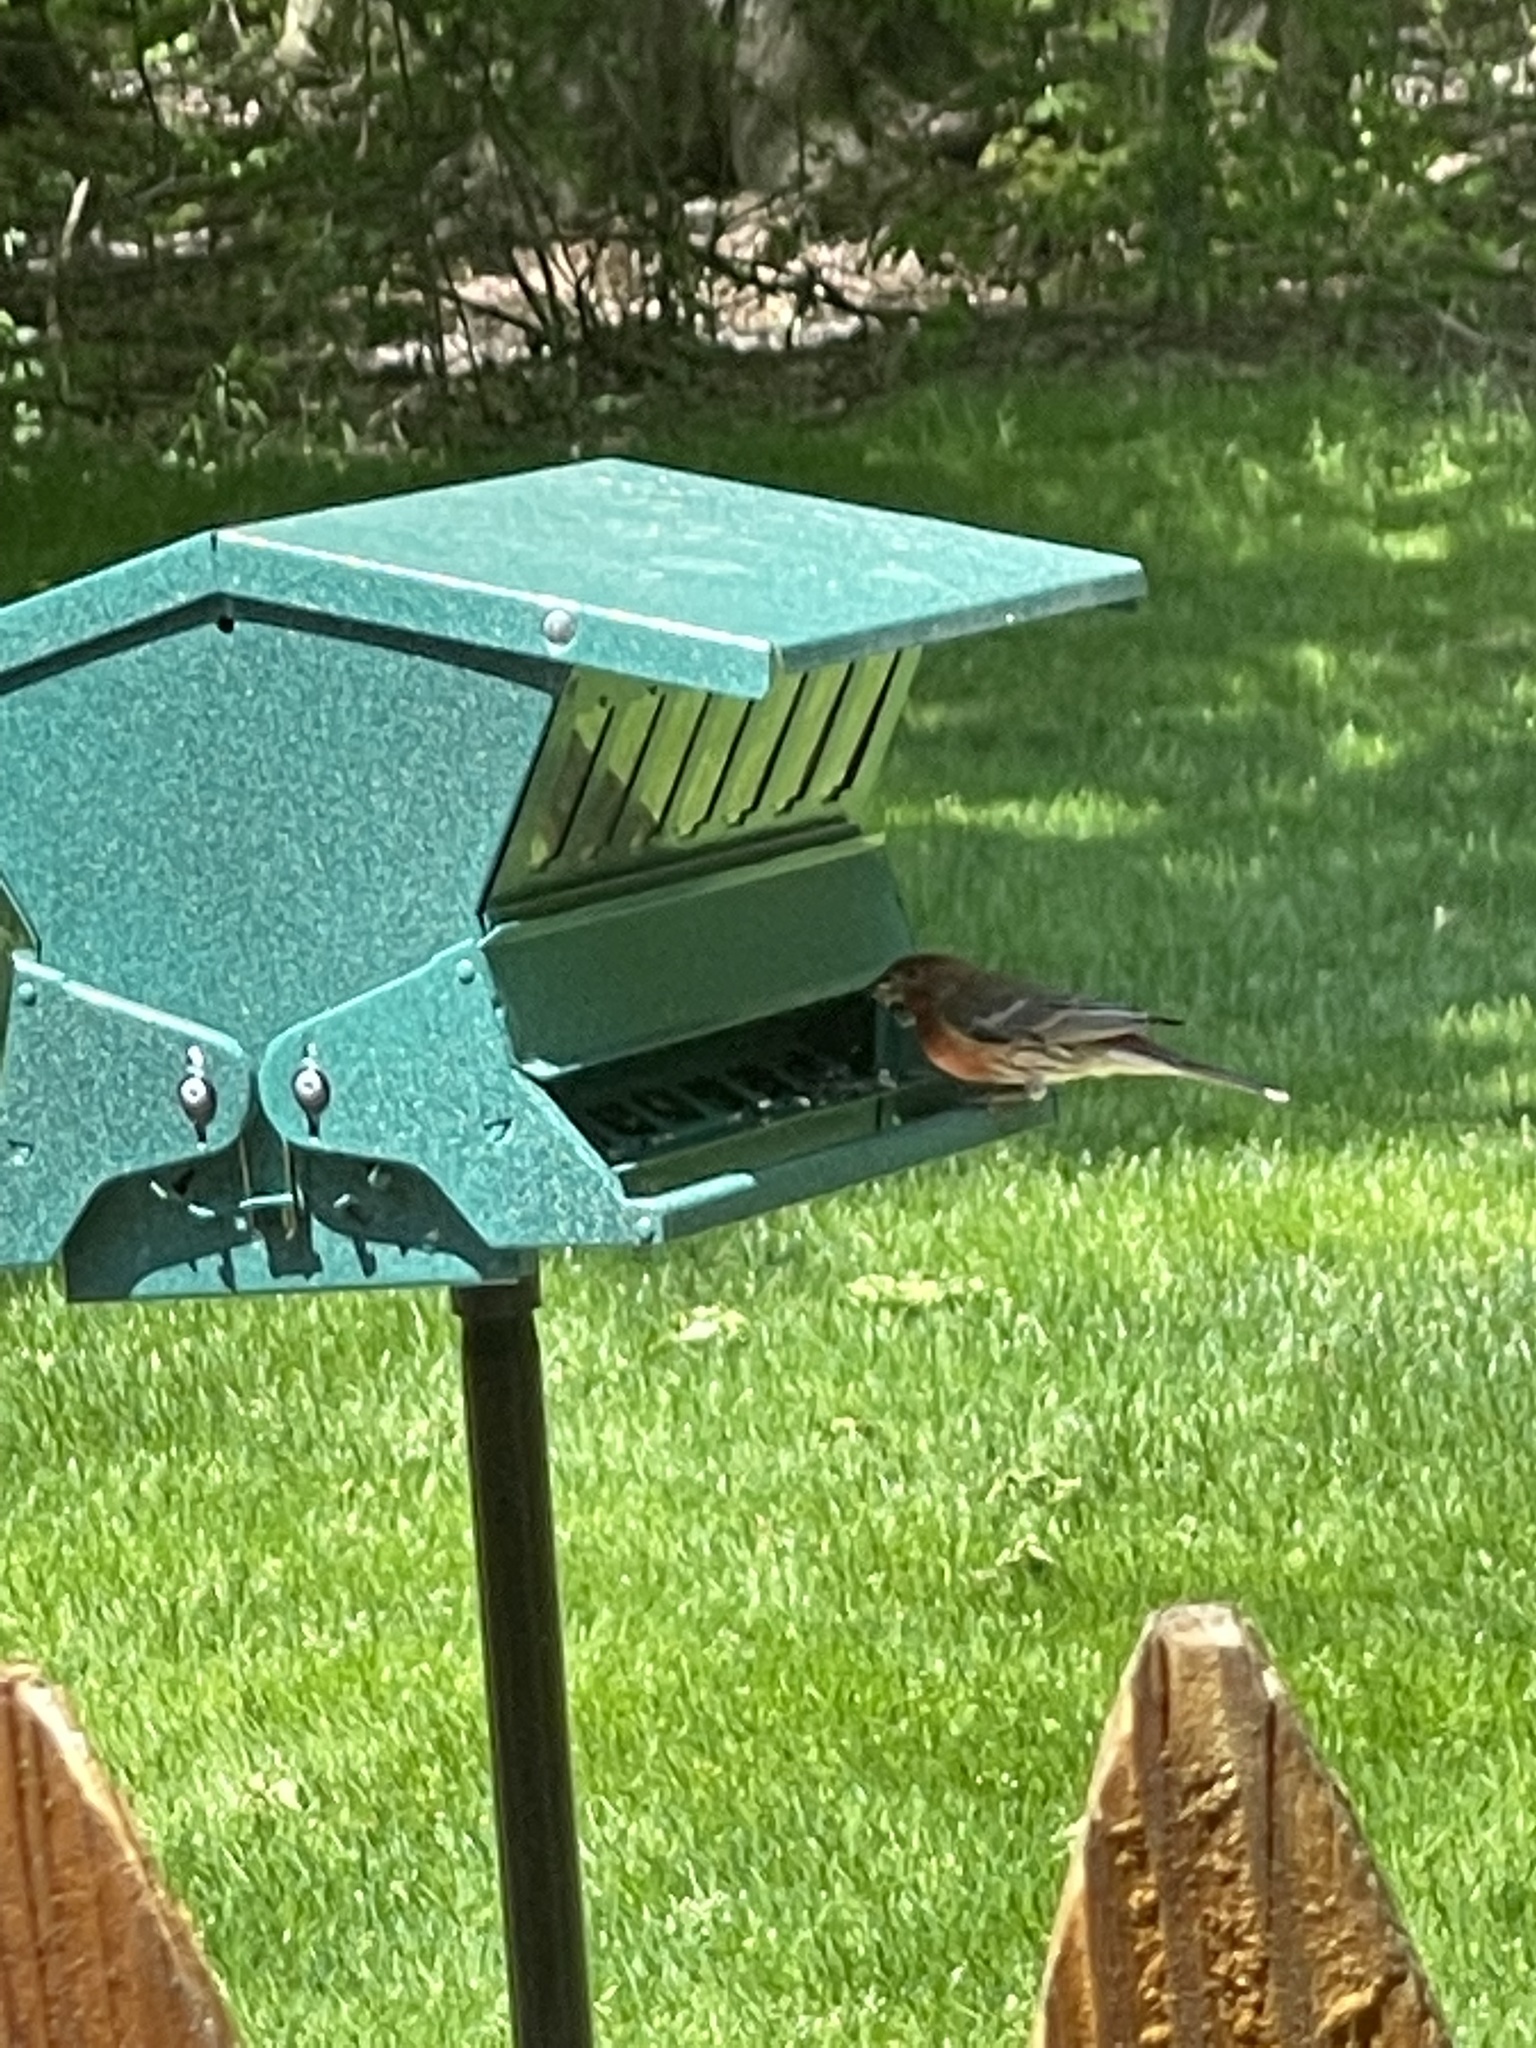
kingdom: Animalia
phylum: Chordata
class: Aves
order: Passeriformes
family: Fringillidae
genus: Haemorhous
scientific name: Haemorhous mexicanus
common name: House finch
